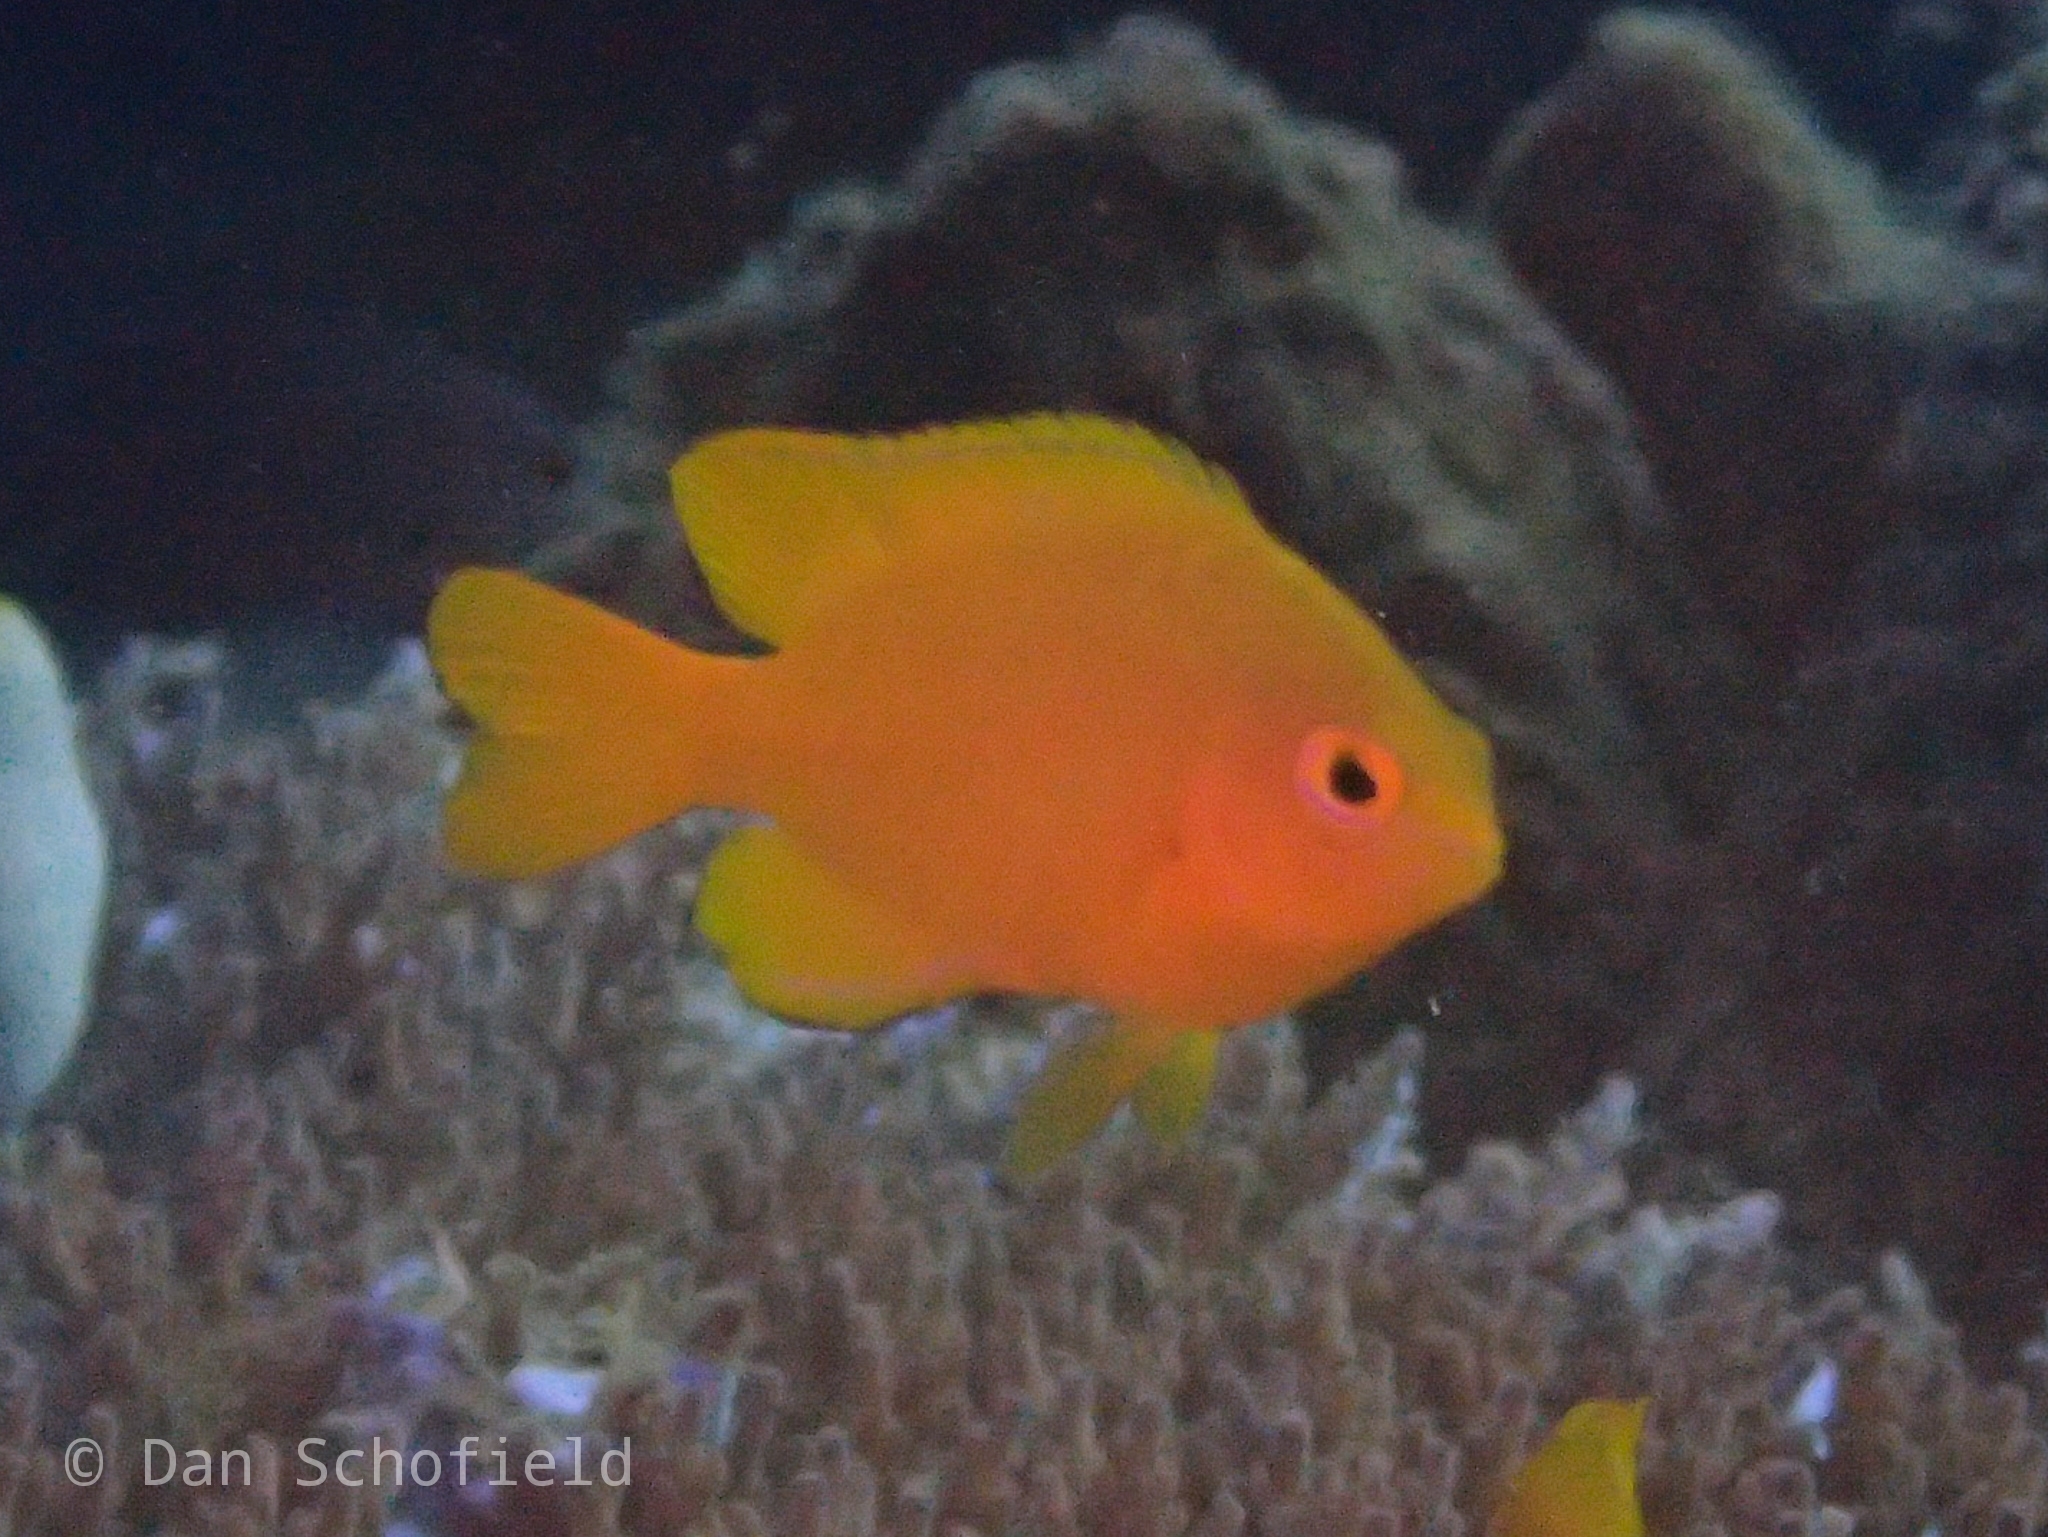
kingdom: Animalia
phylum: Chordata
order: Perciformes
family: Pomacentridae
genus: Pomacentrus
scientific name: Pomacentrus moluccensis
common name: Lemon damsel
